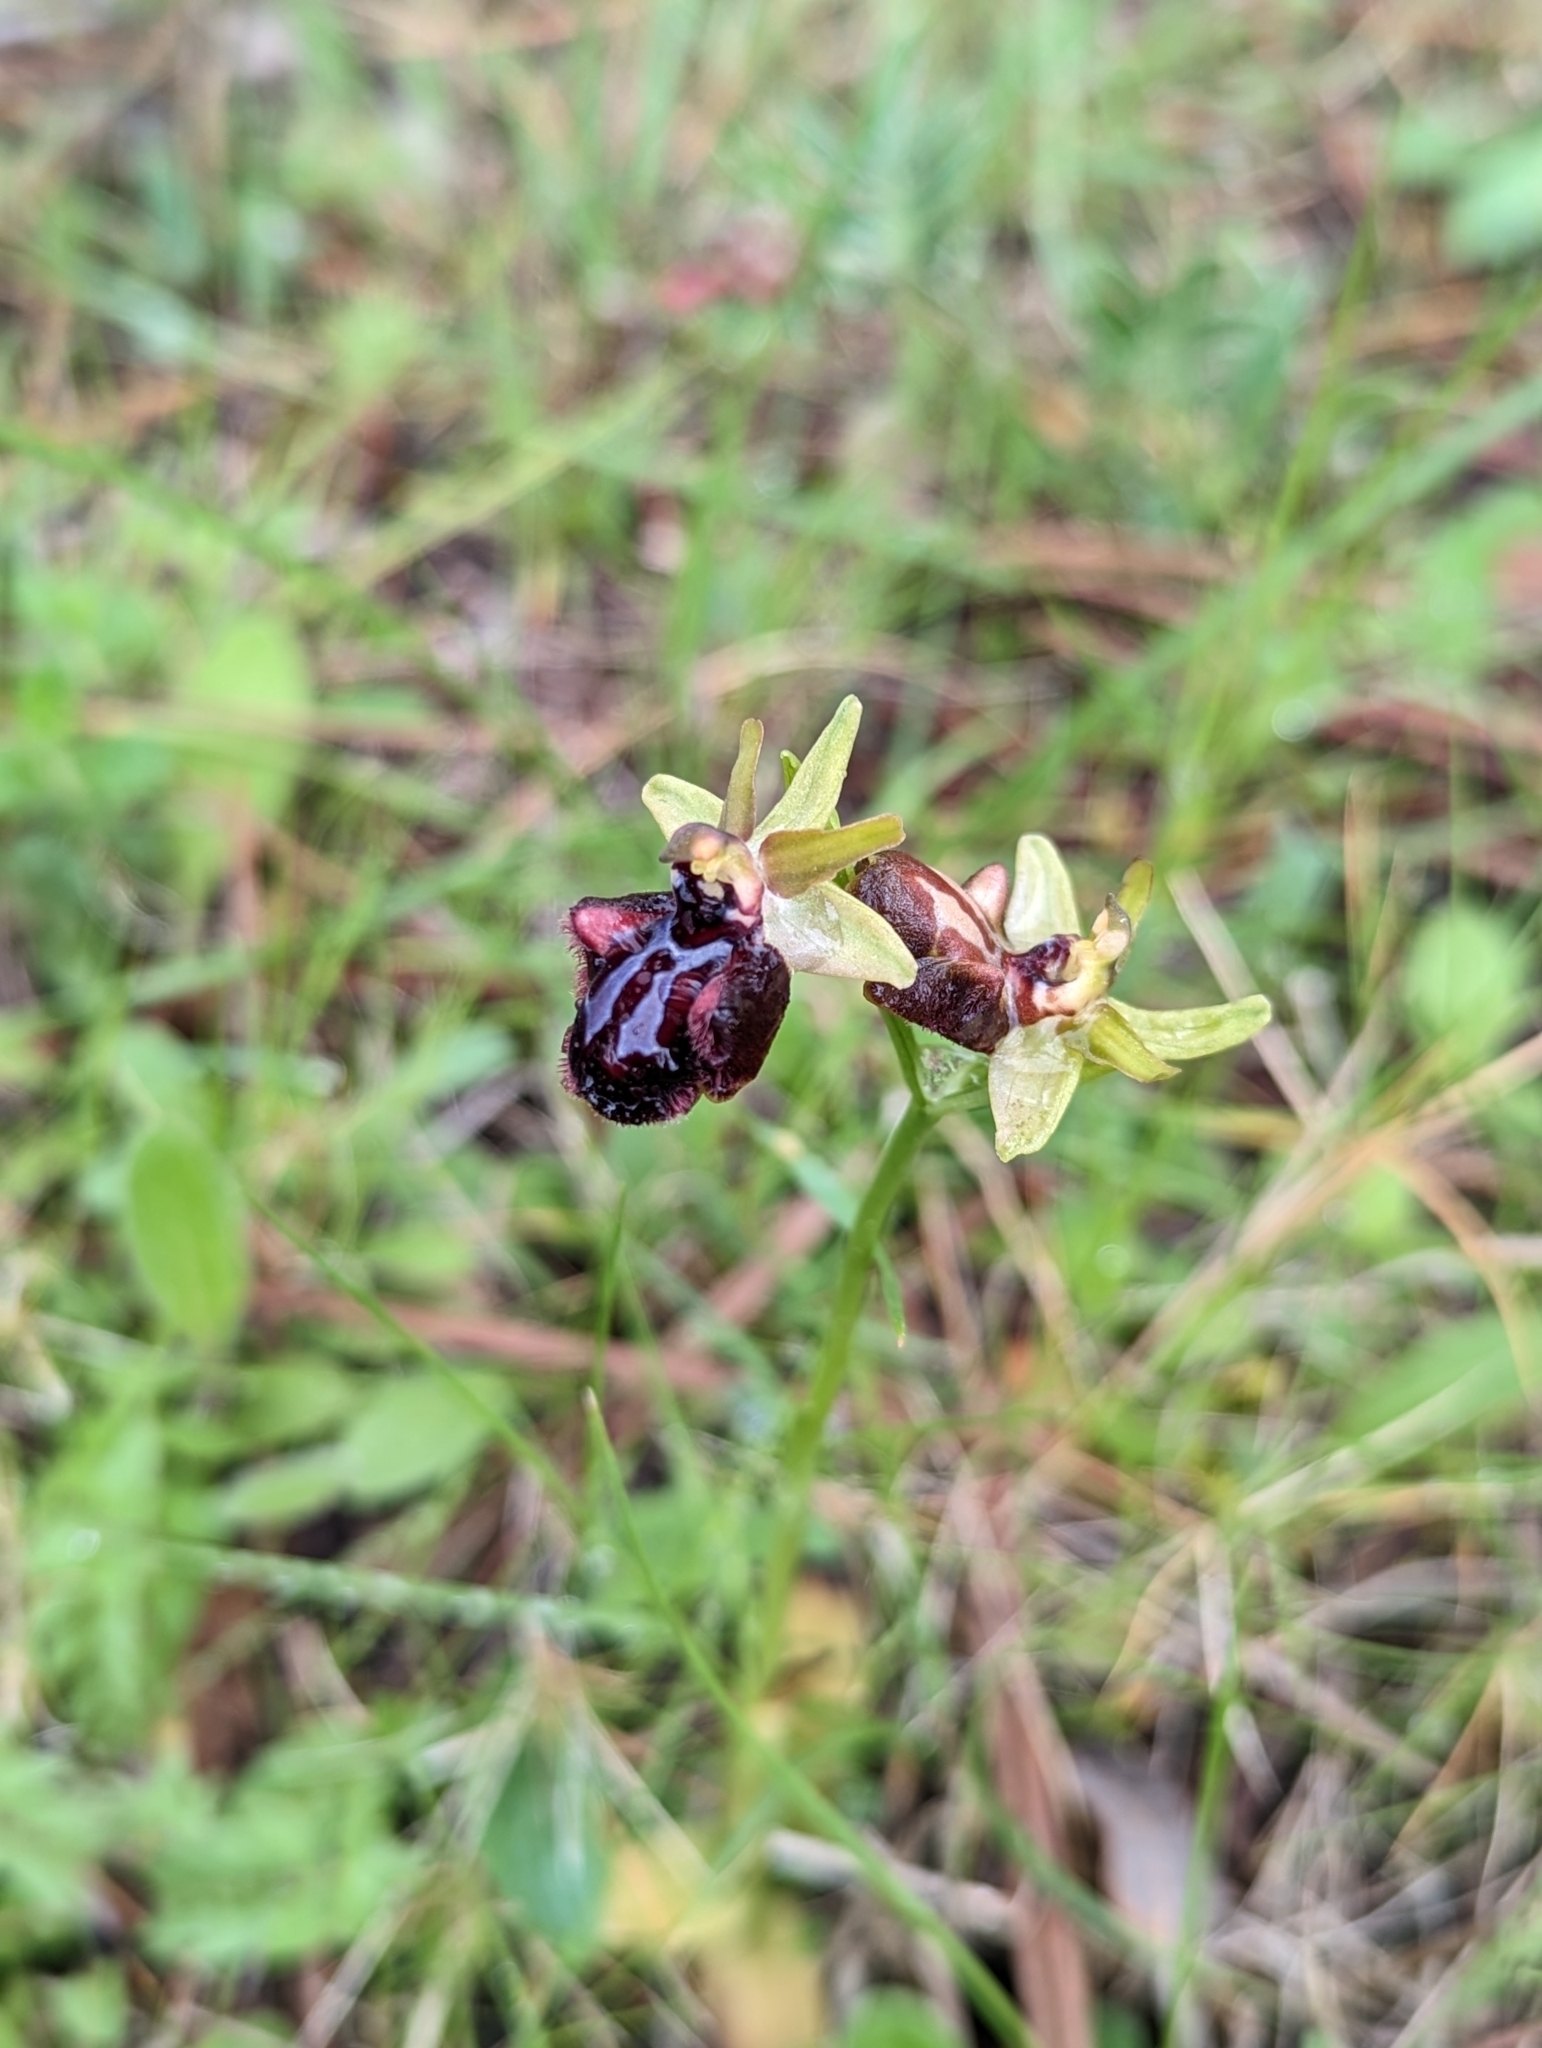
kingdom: Plantae
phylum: Tracheophyta
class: Liliopsida
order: Asparagales
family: Orchidaceae
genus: Ophrys
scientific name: Ophrys sphegodes
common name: Early spider-orchid
